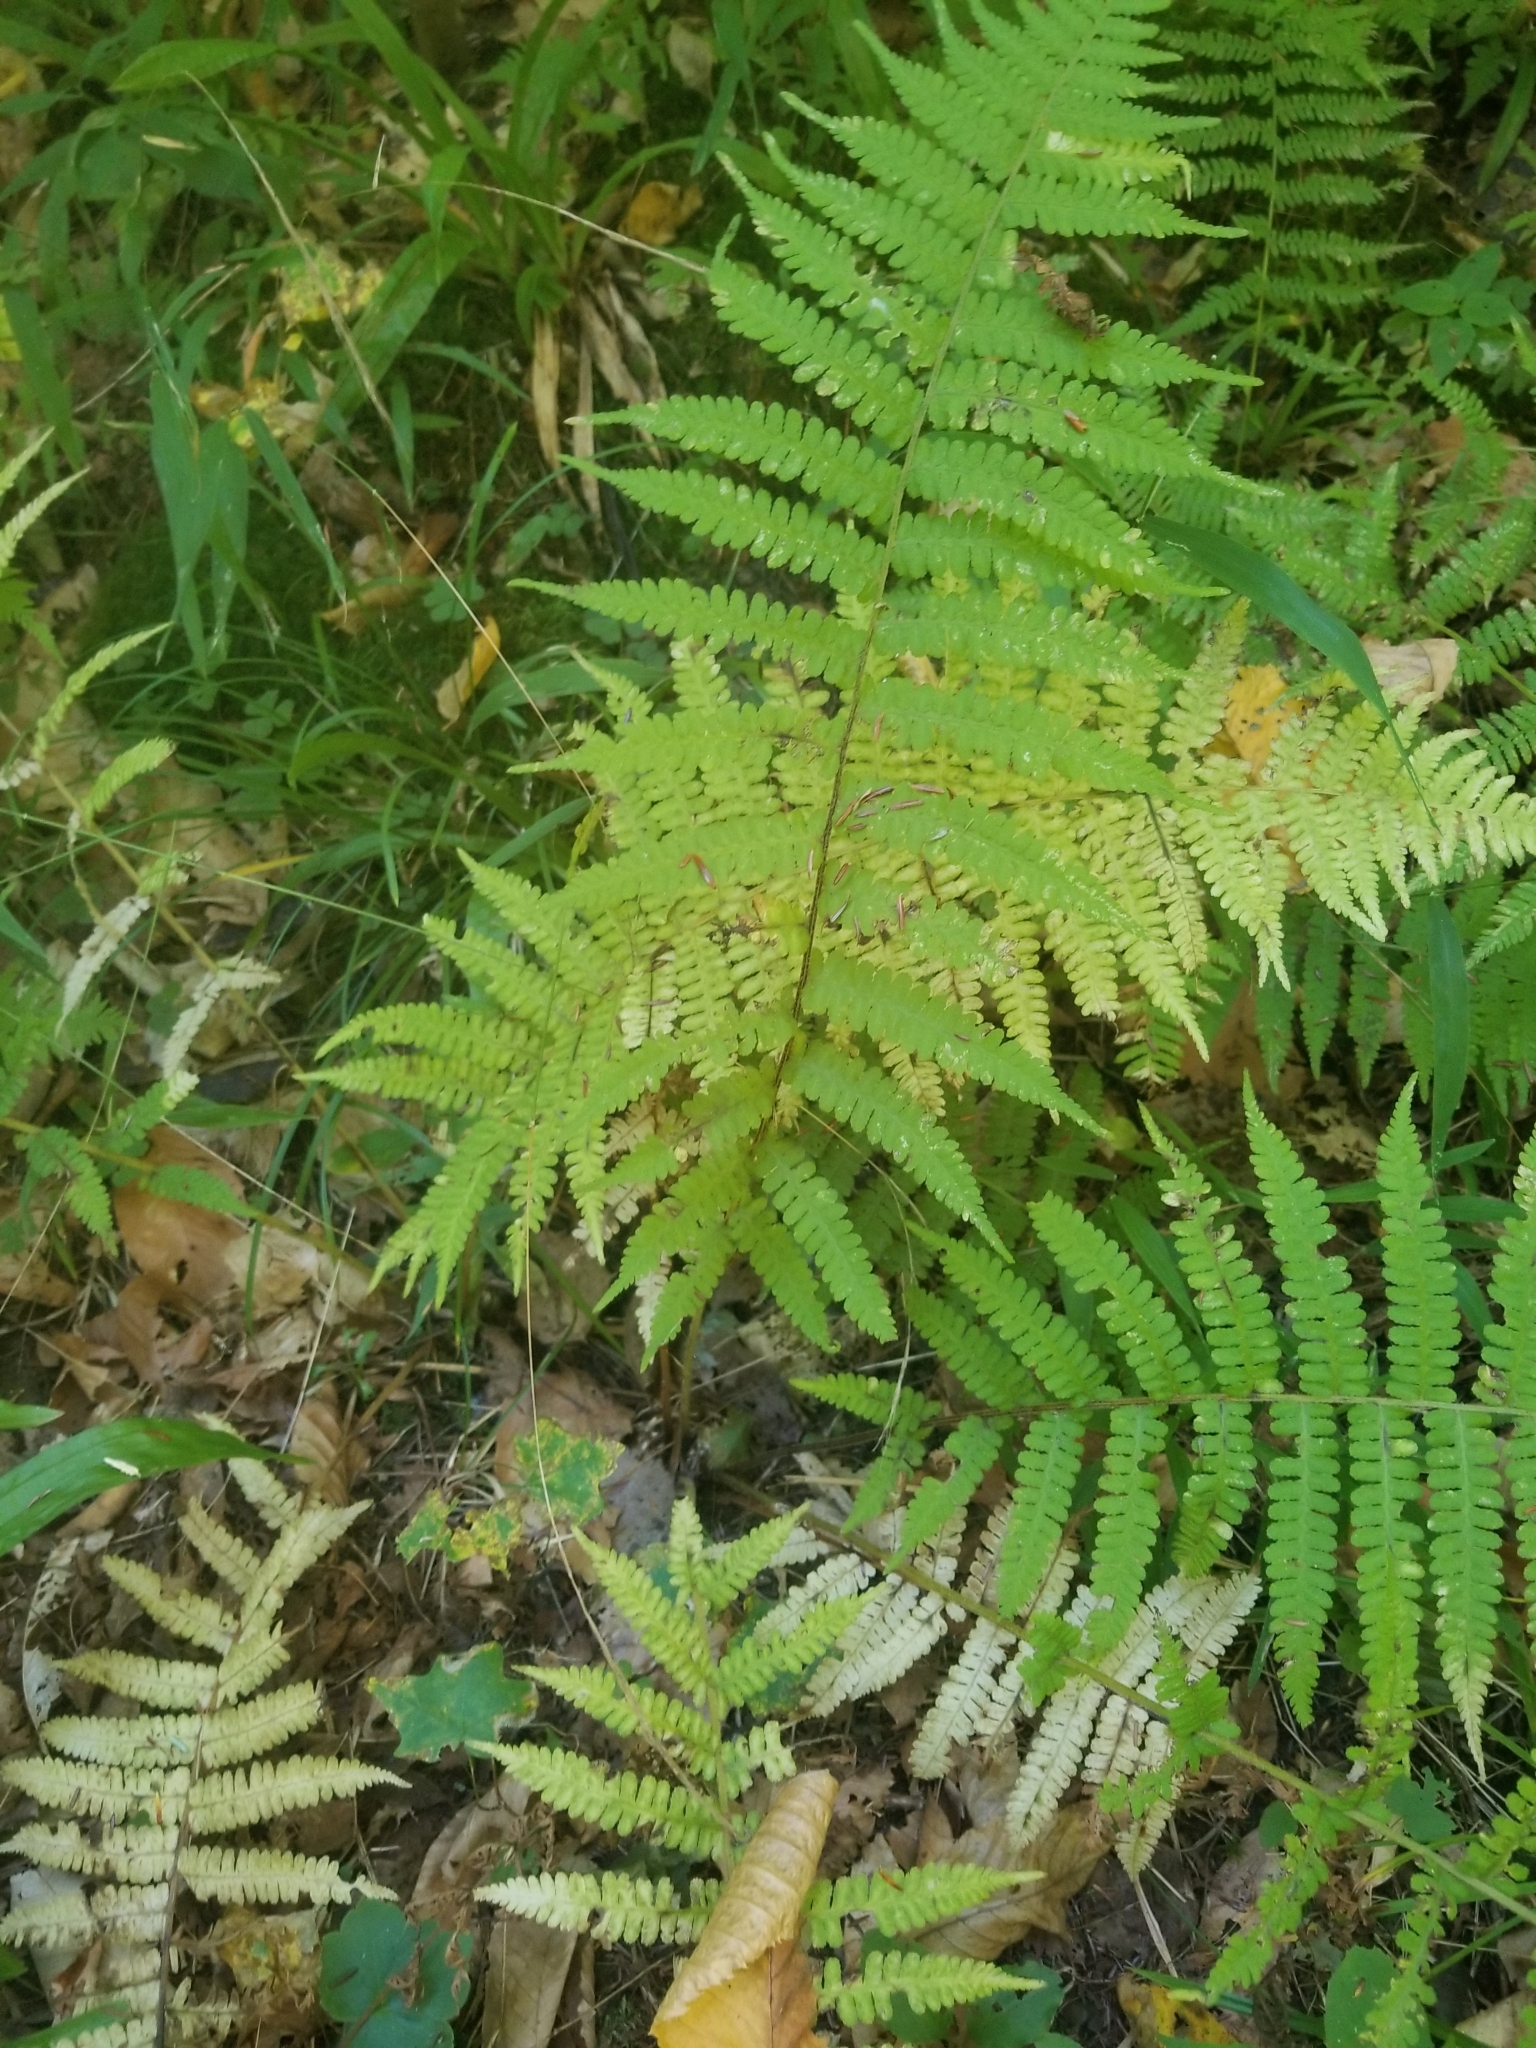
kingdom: Plantae
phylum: Tracheophyta
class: Polypodiopsida
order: Polypodiales
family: Athyriaceae
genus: Deparia
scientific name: Deparia acrostichoides
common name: Silver false spleenwort
